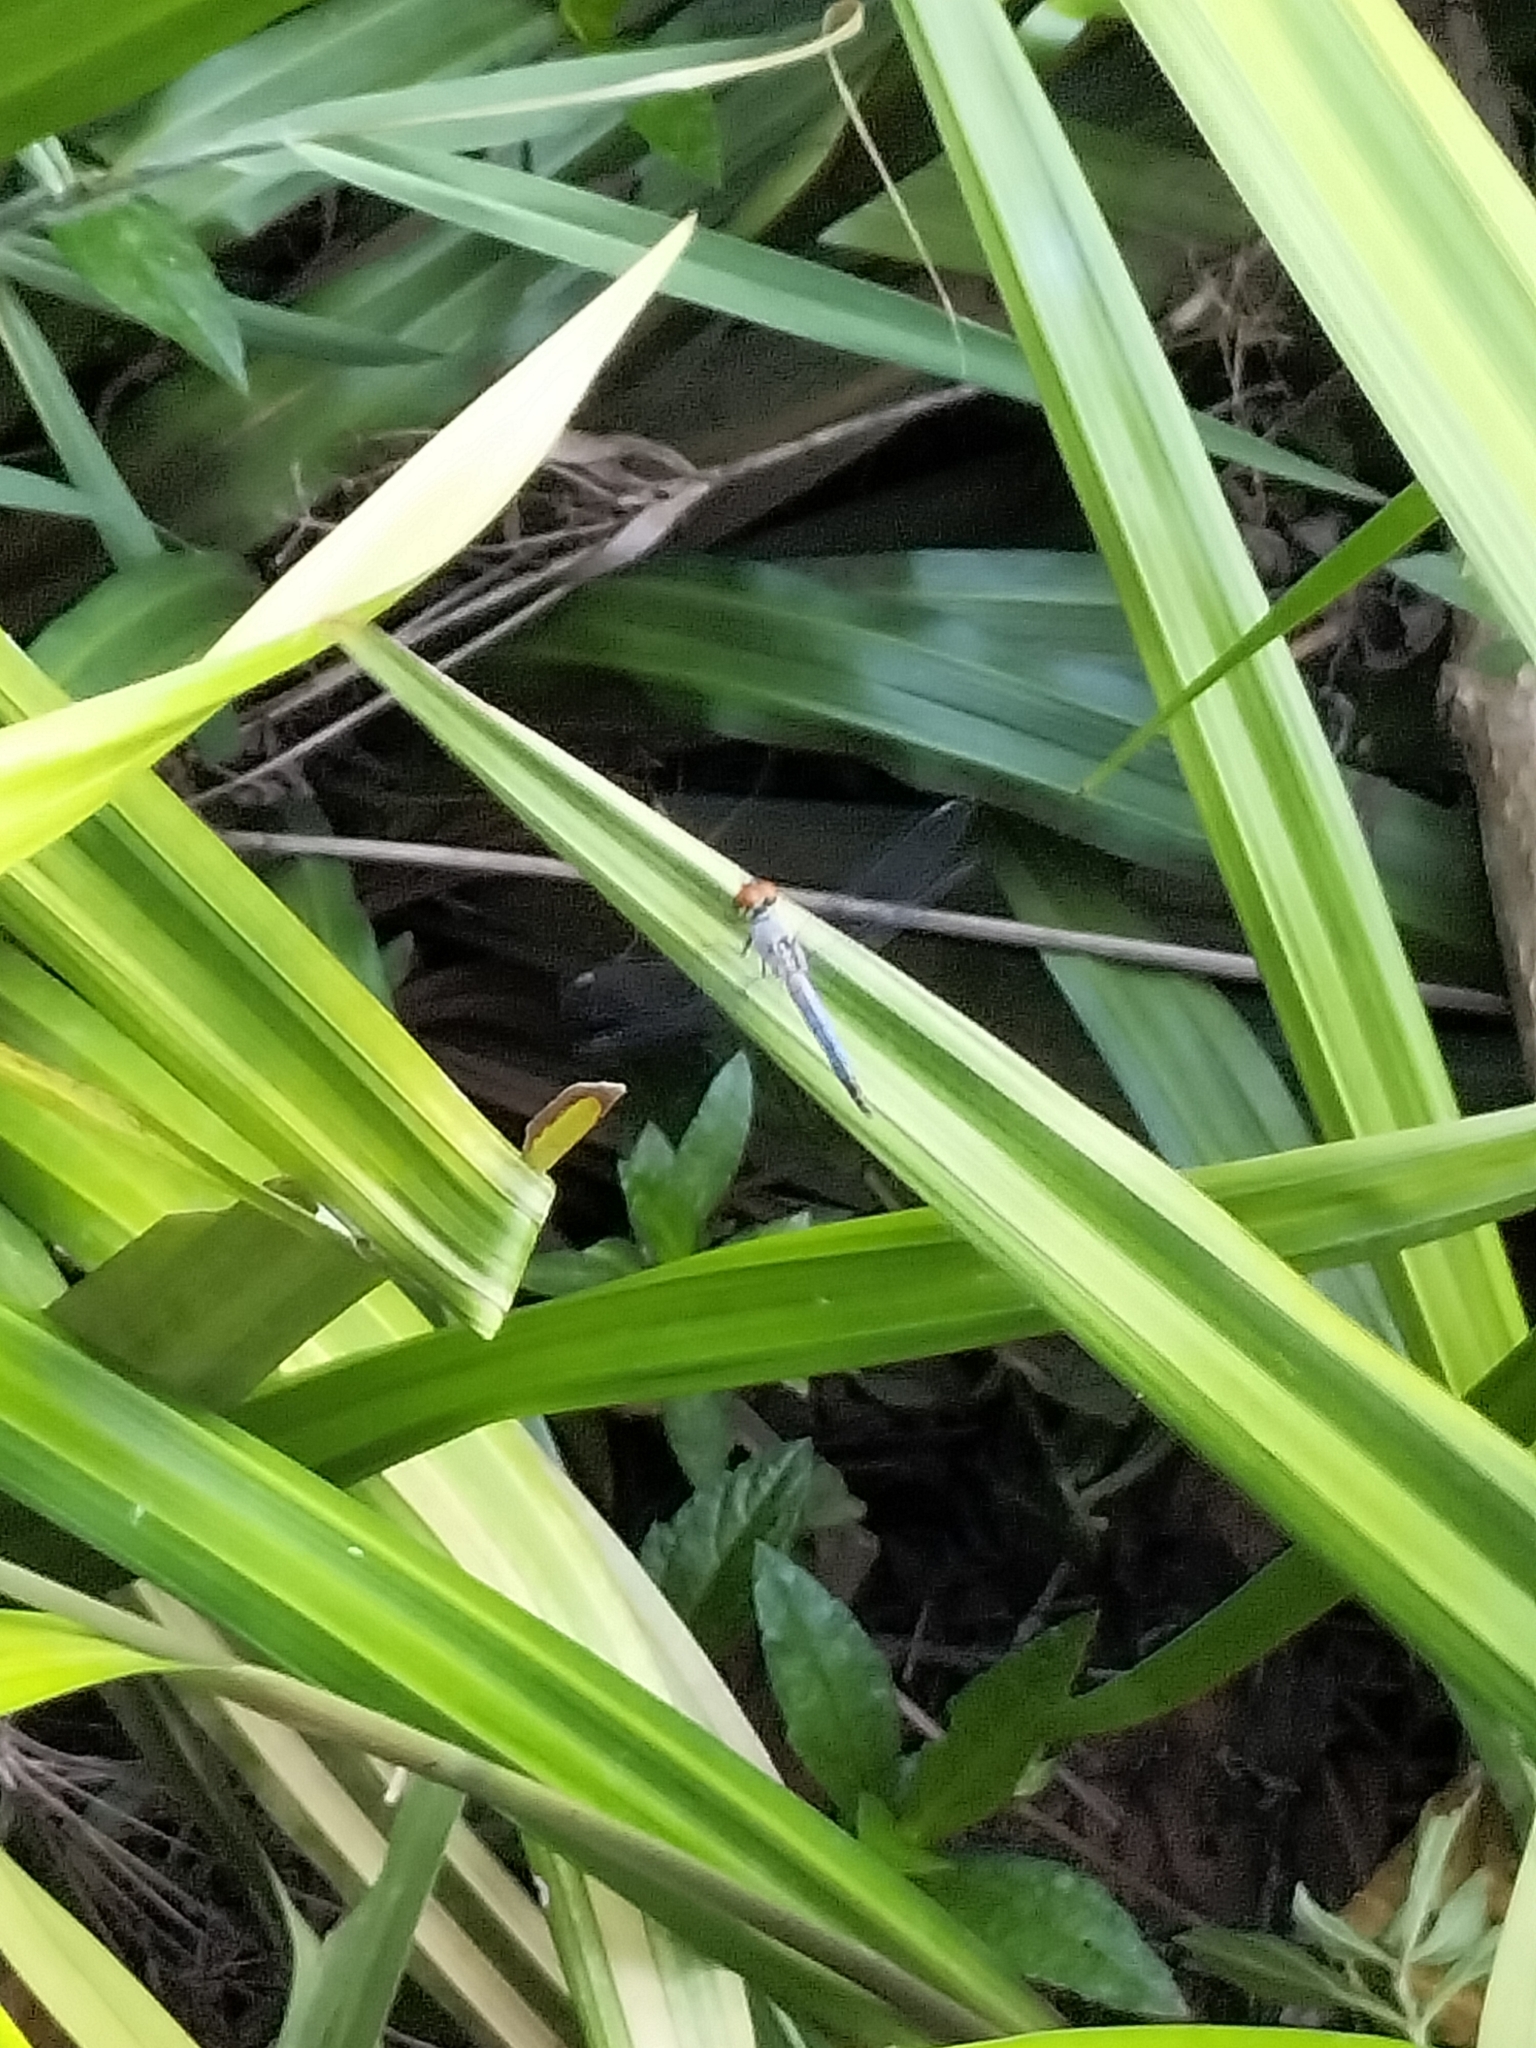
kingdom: Animalia
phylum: Arthropoda
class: Insecta
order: Odonata
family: Libellulidae
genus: Brachydiplax
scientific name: Brachydiplax denticauda
